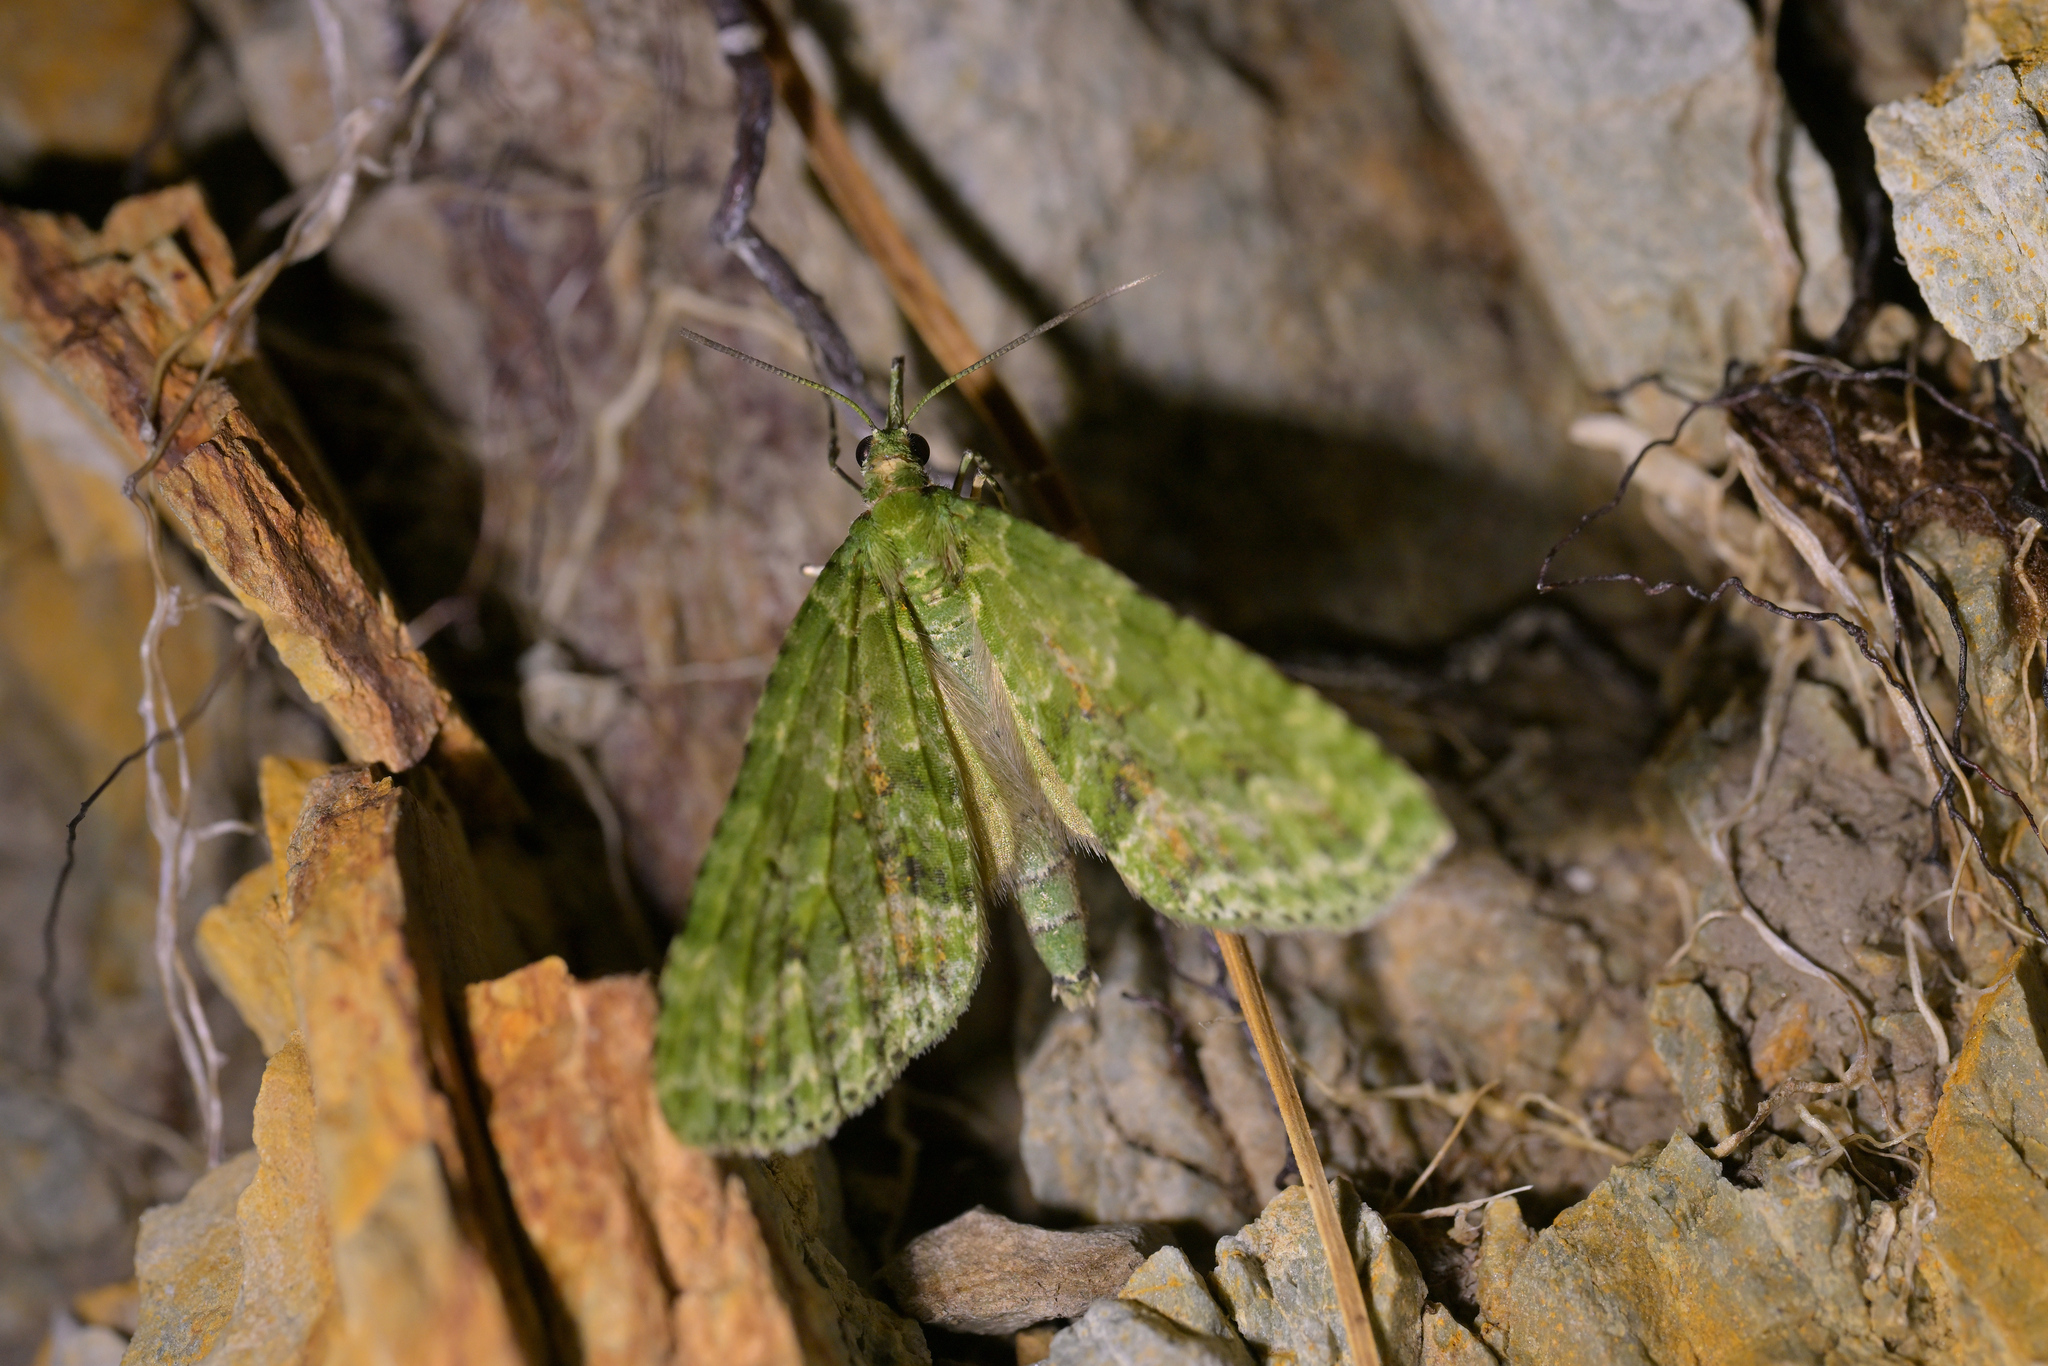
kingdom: Animalia
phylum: Arthropoda
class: Insecta
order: Lepidoptera
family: Geometridae
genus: Tatosoma
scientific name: Tatosoma tipulata
